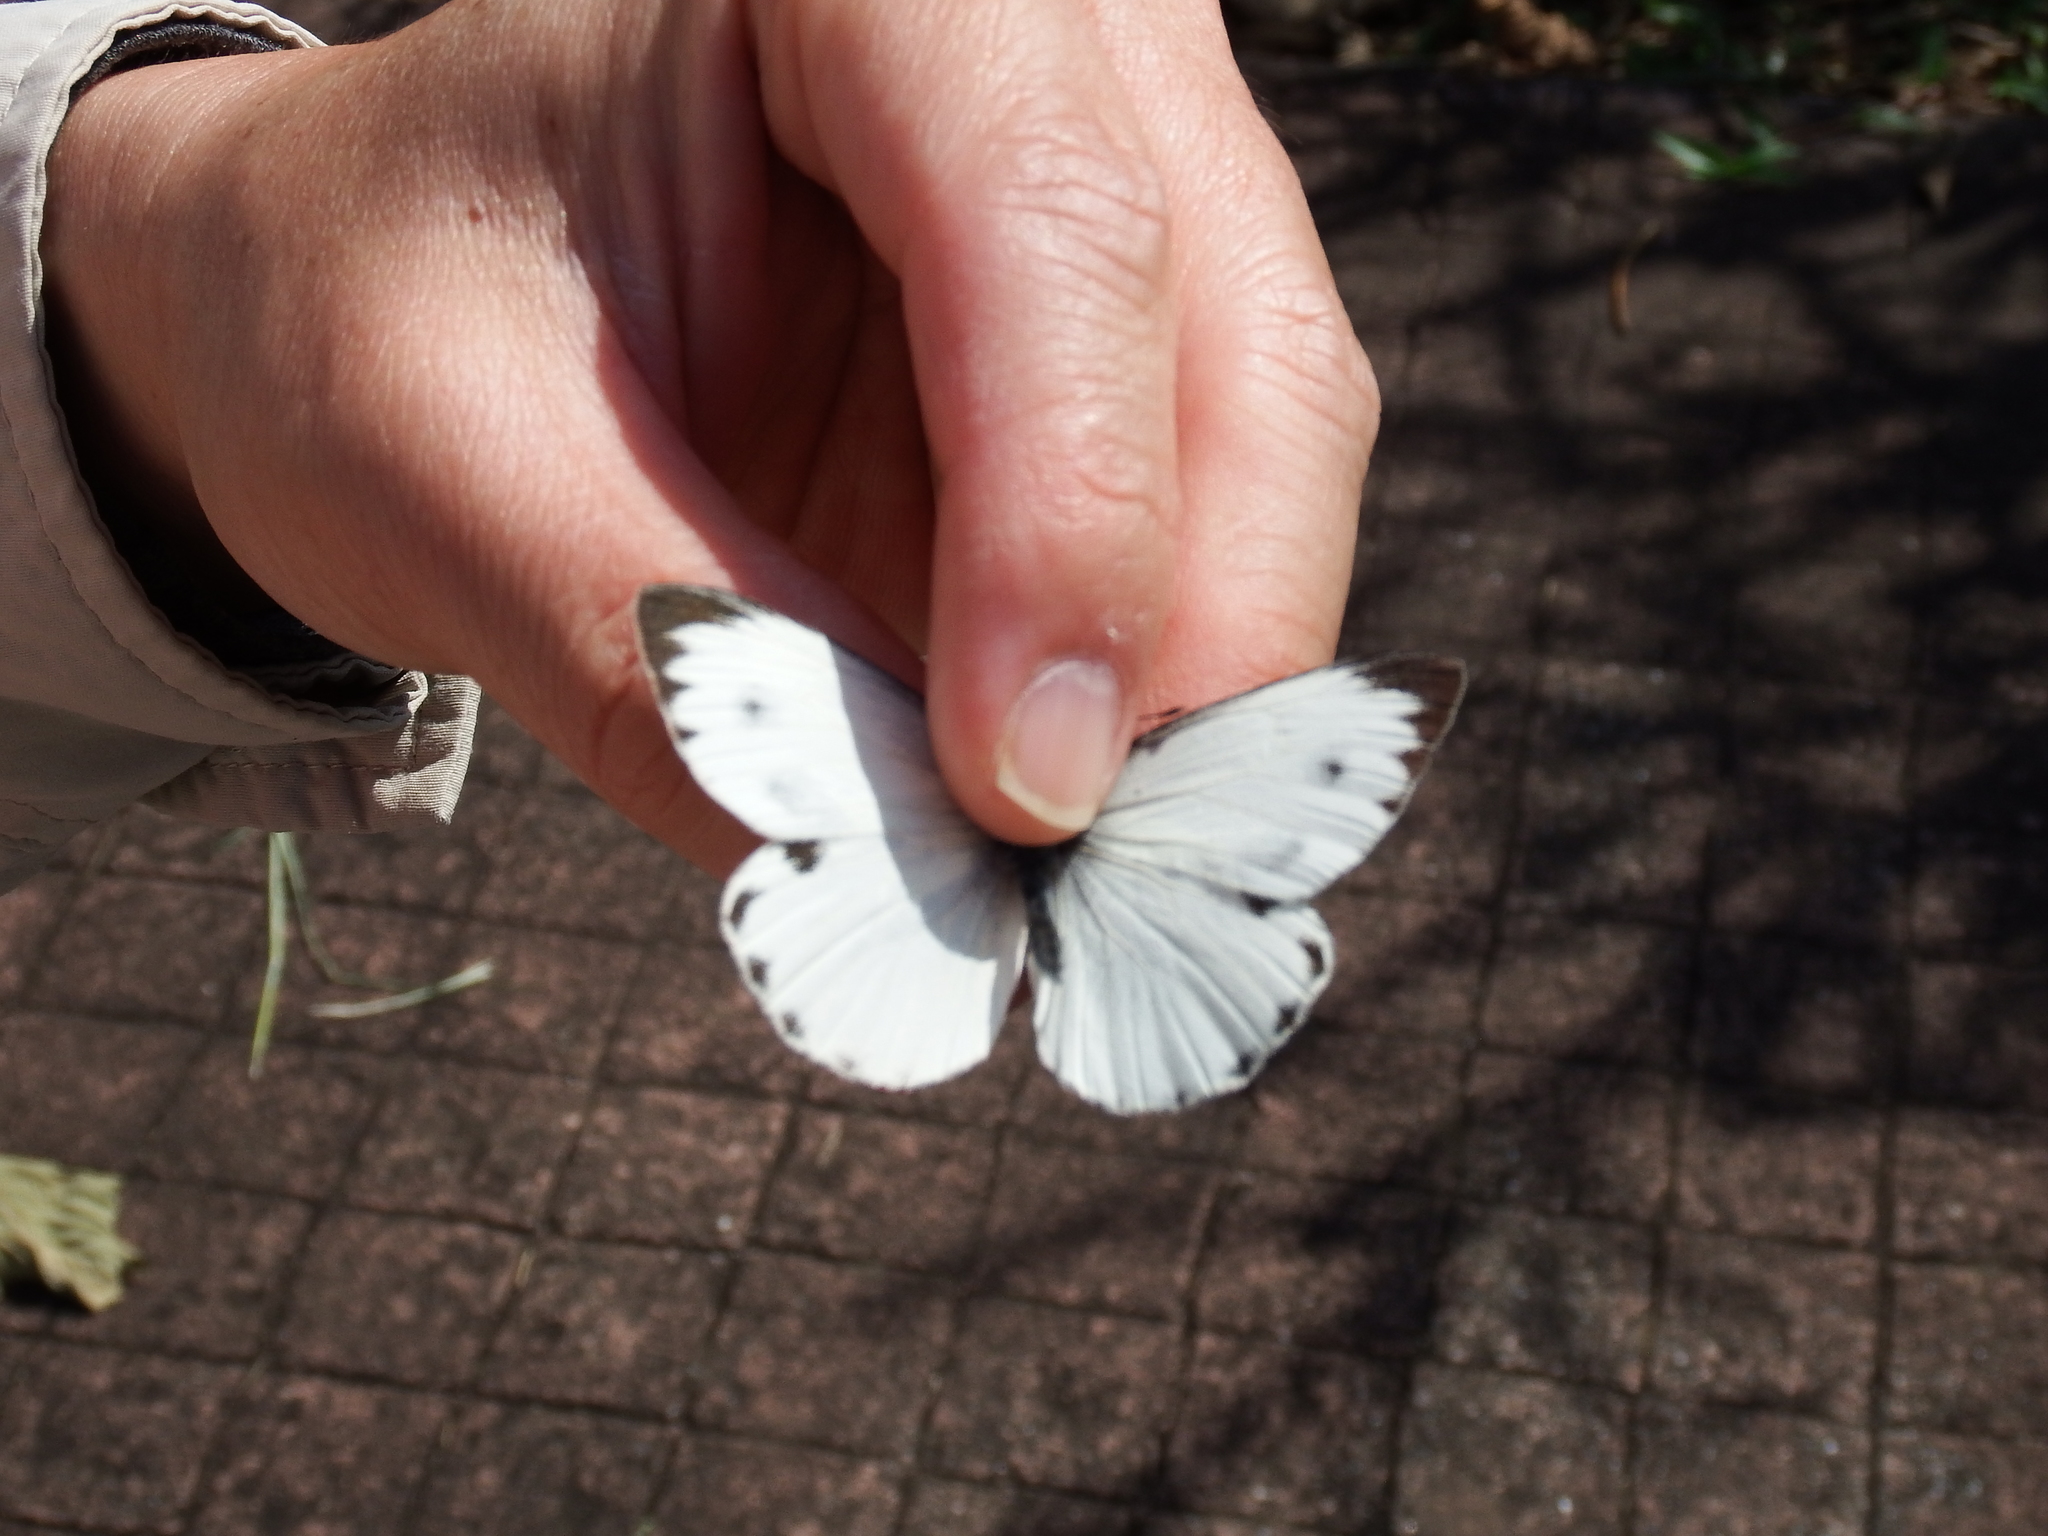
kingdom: Animalia
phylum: Arthropoda
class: Insecta
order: Lepidoptera
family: Pieridae
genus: Pieris
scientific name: Pieris canidia
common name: Indian cabbage white
